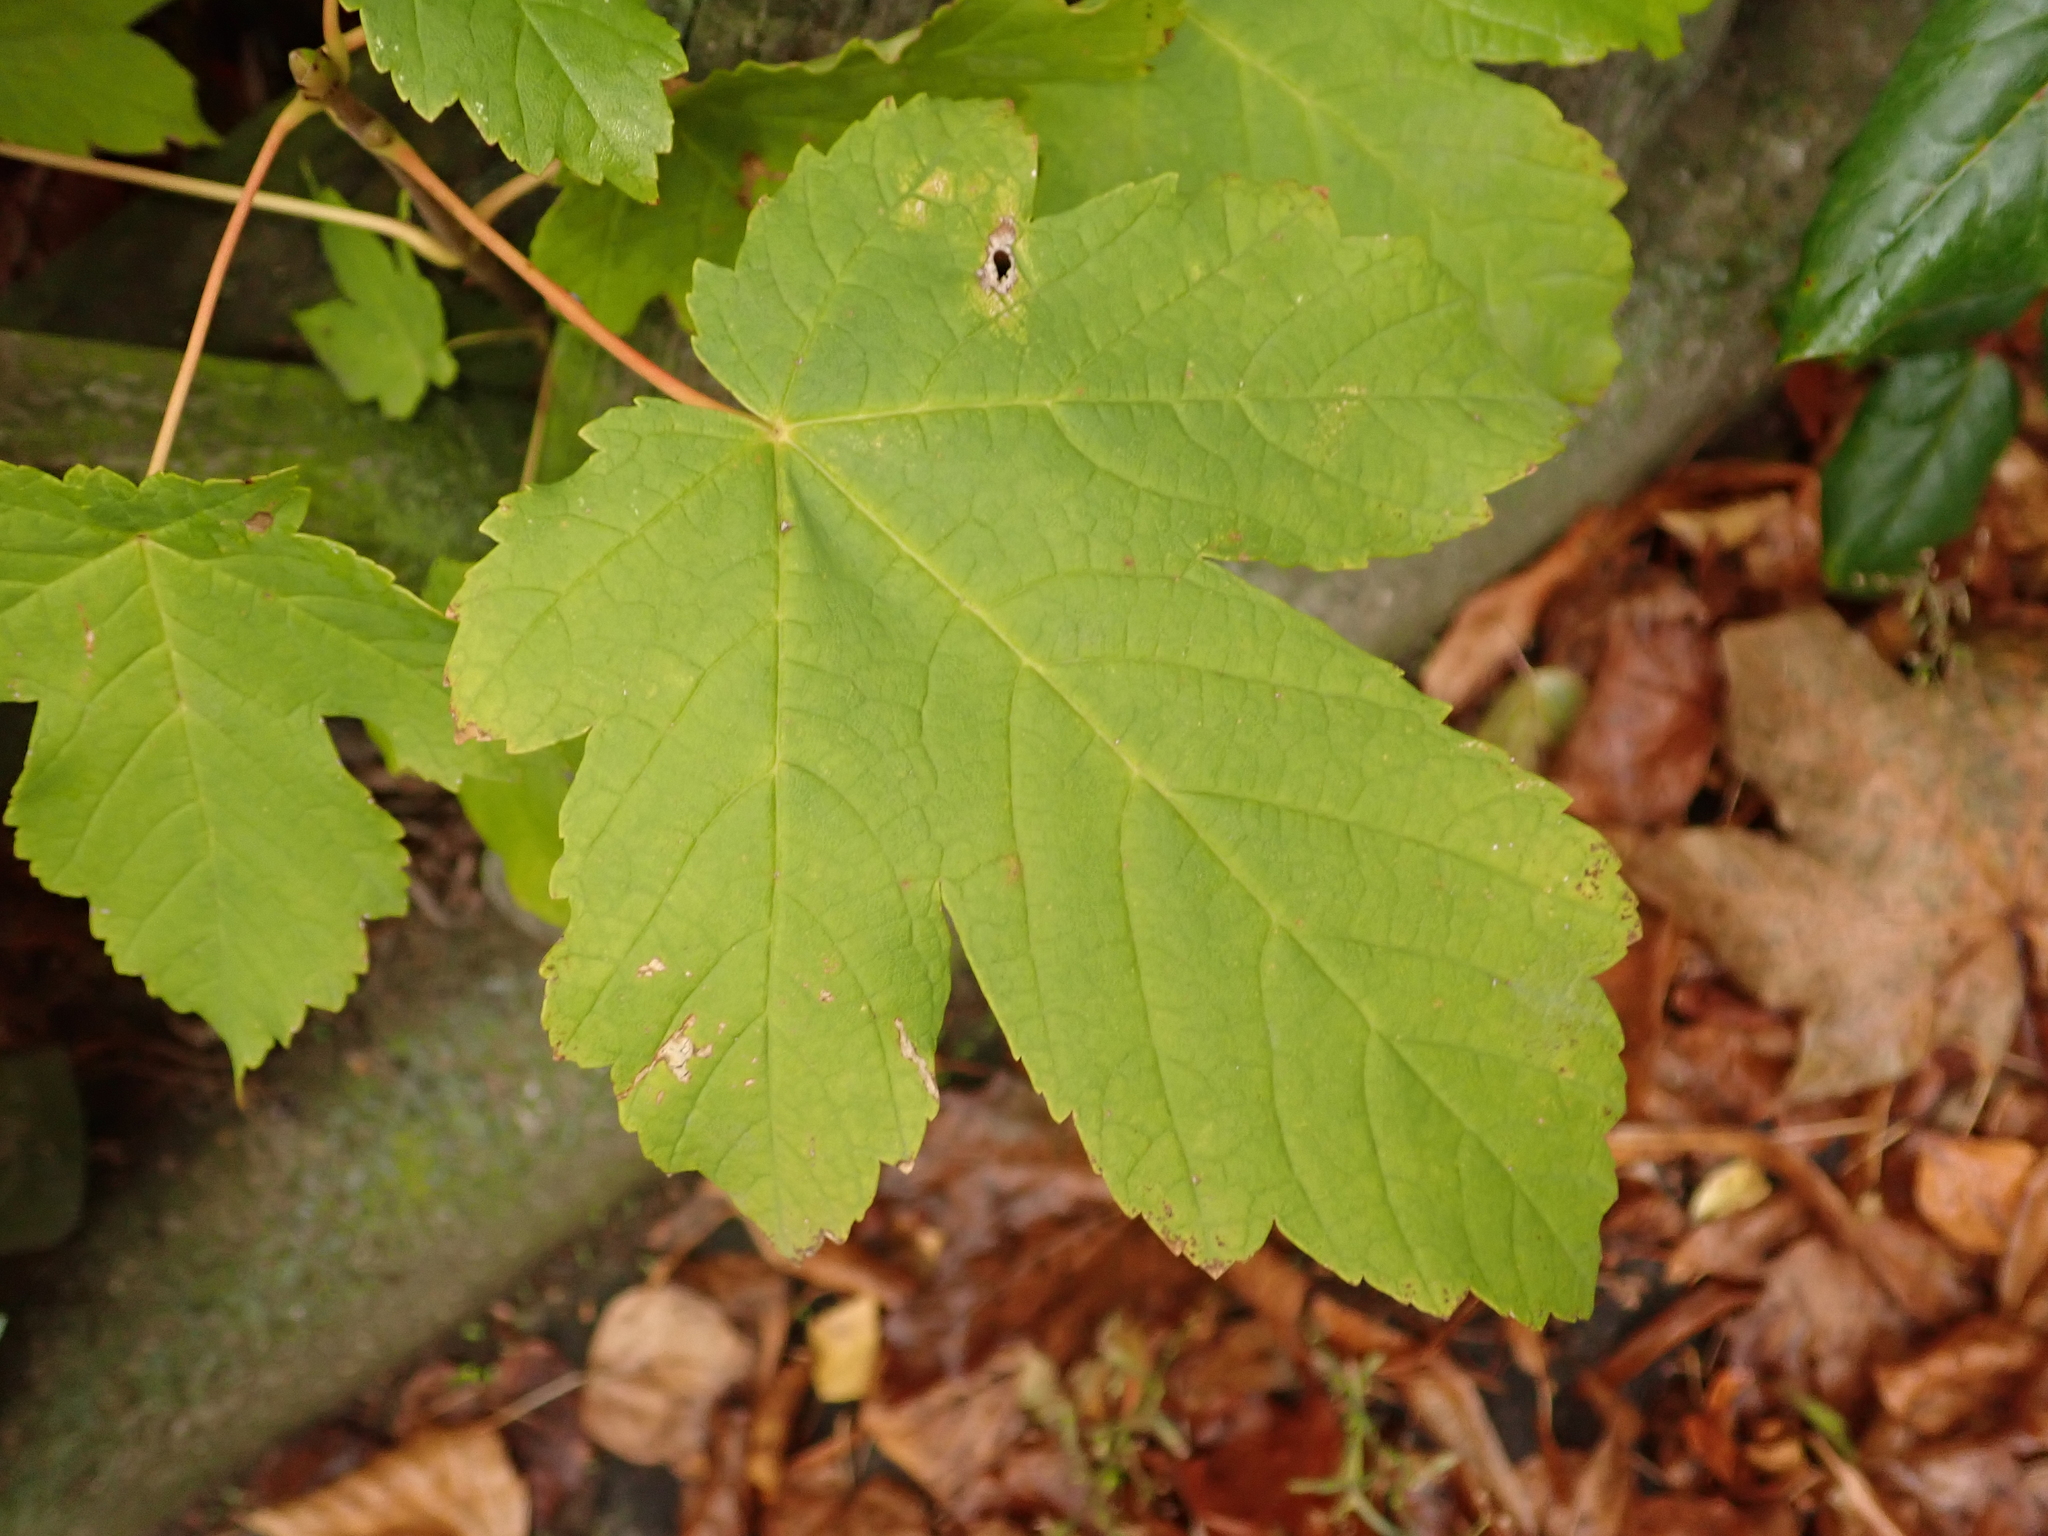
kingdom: Plantae
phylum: Tracheophyta
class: Magnoliopsida
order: Sapindales
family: Sapindaceae
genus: Acer
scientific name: Acer pseudoplatanus
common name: Sycamore
